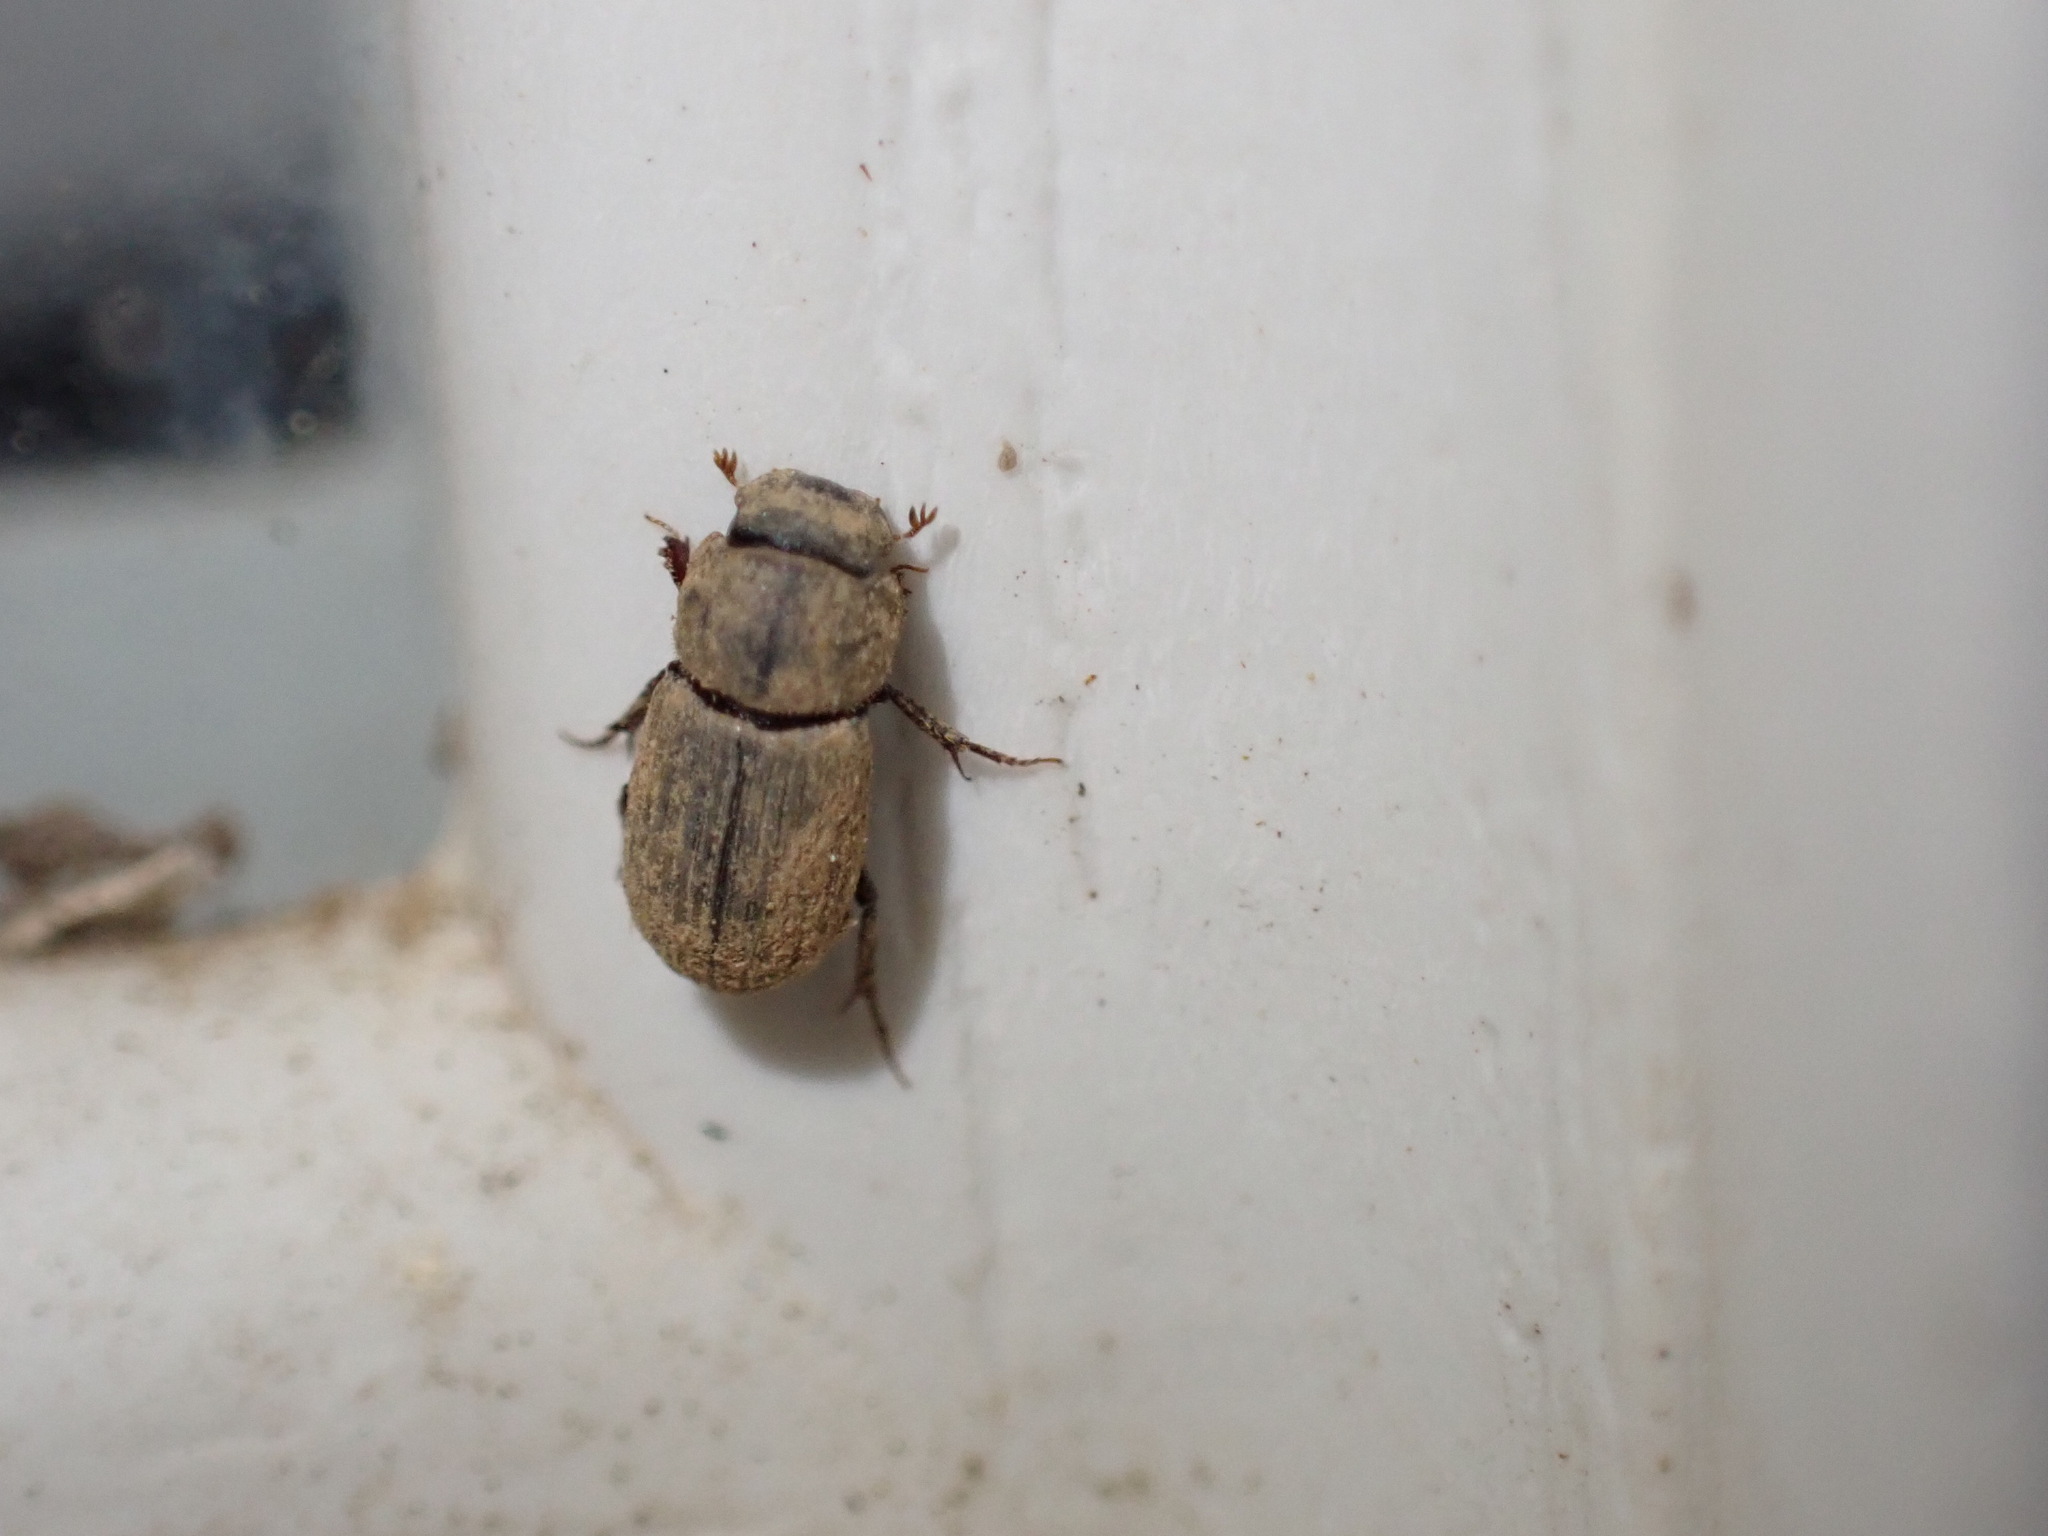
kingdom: Animalia
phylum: Arthropoda
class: Insecta
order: Coleoptera
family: Scarabaeidae
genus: Ataenius
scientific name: Ataenius imbricatus
